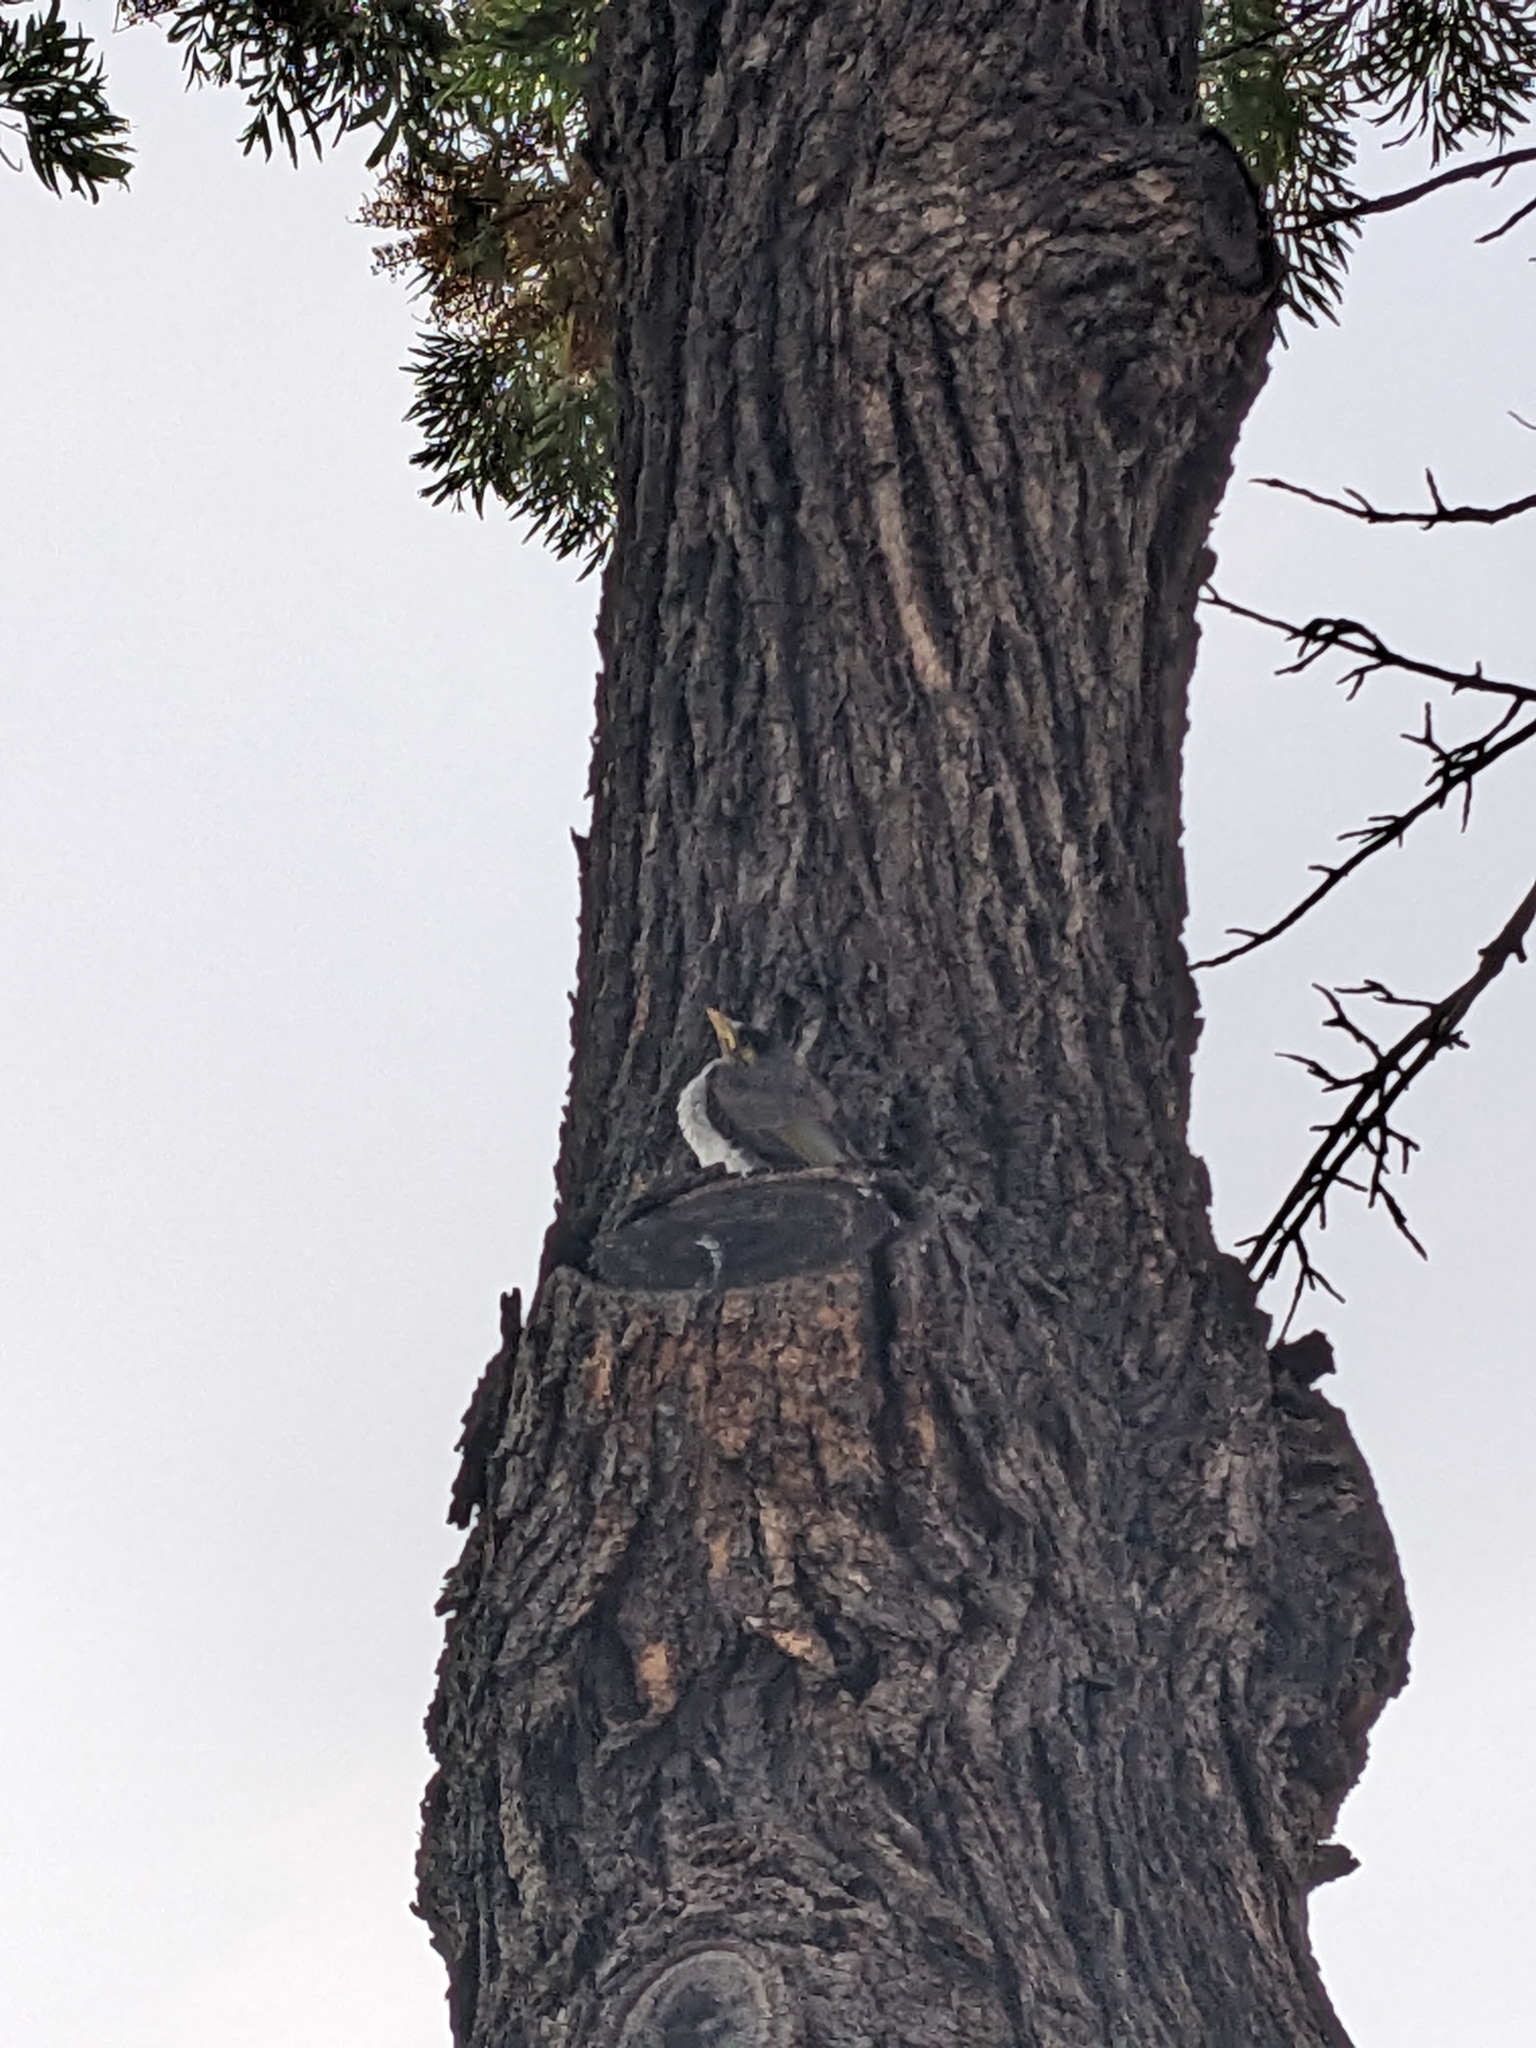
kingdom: Animalia
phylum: Chordata
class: Aves
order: Passeriformes
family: Meliphagidae
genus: Manorina
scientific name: Manorina melanocephala
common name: Noisy miner
